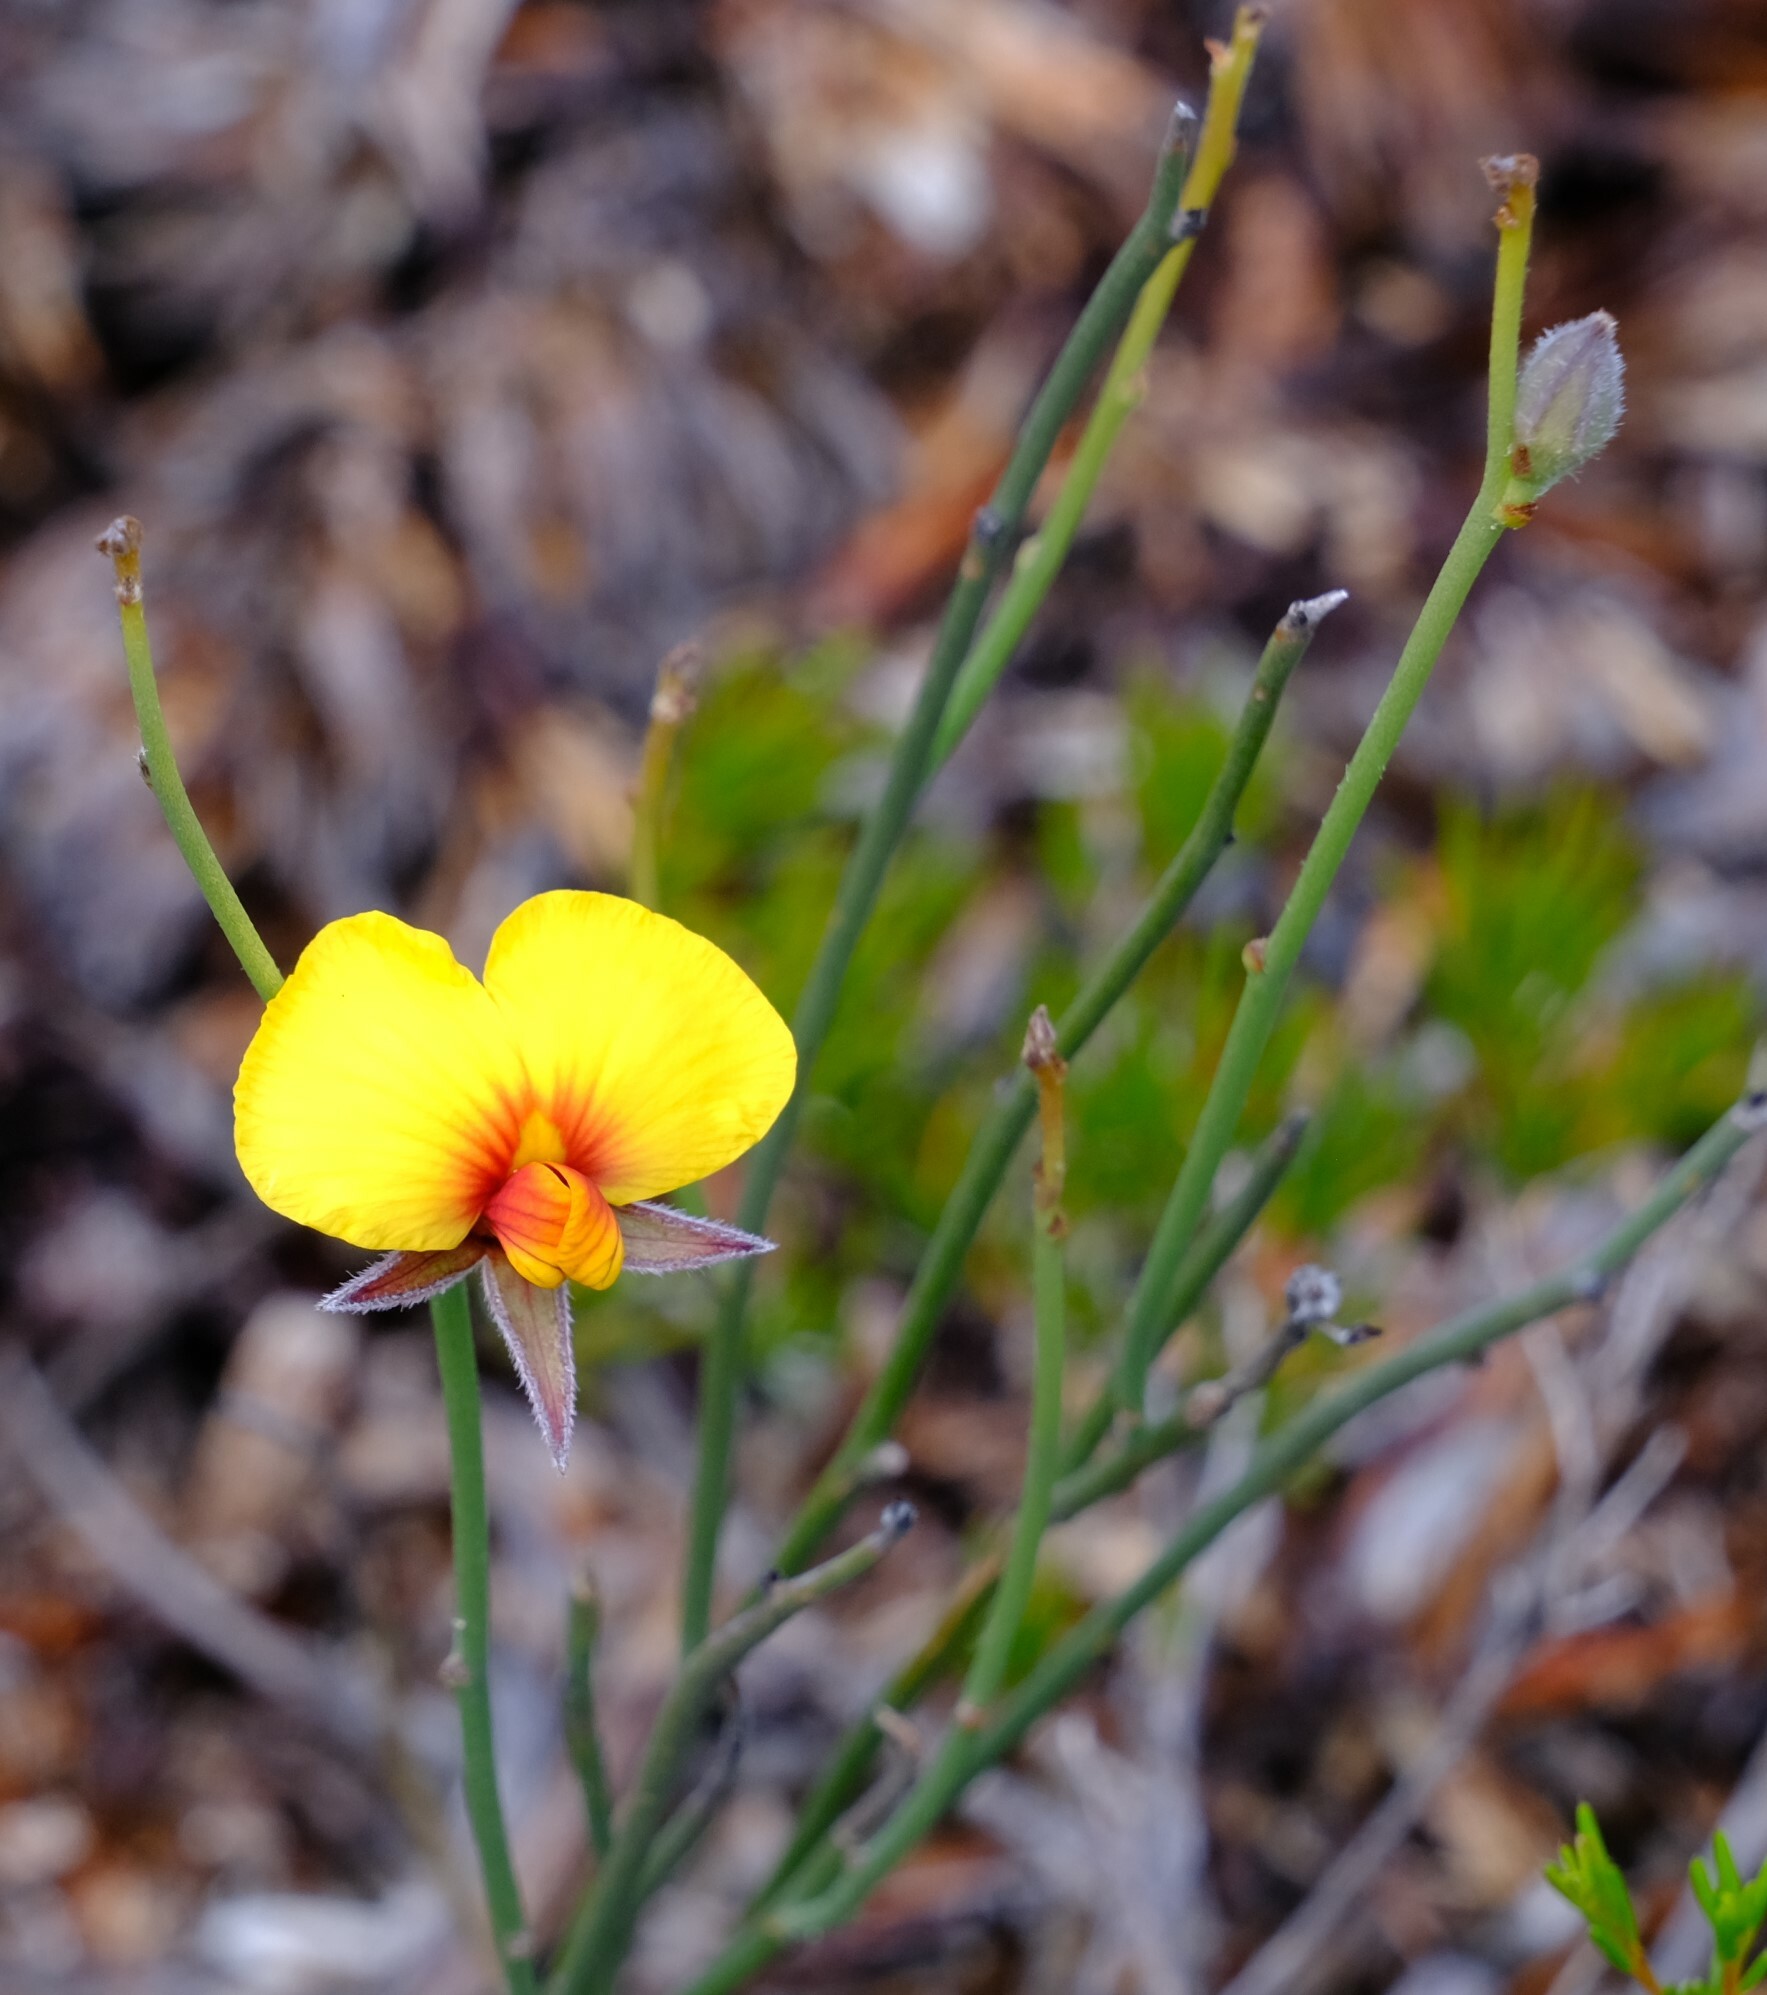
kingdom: Plantae
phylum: Tracheophyta
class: Magnoliopsida
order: Fabales
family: Fabaceae
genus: Jacksonia
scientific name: Jacksonia restioides
